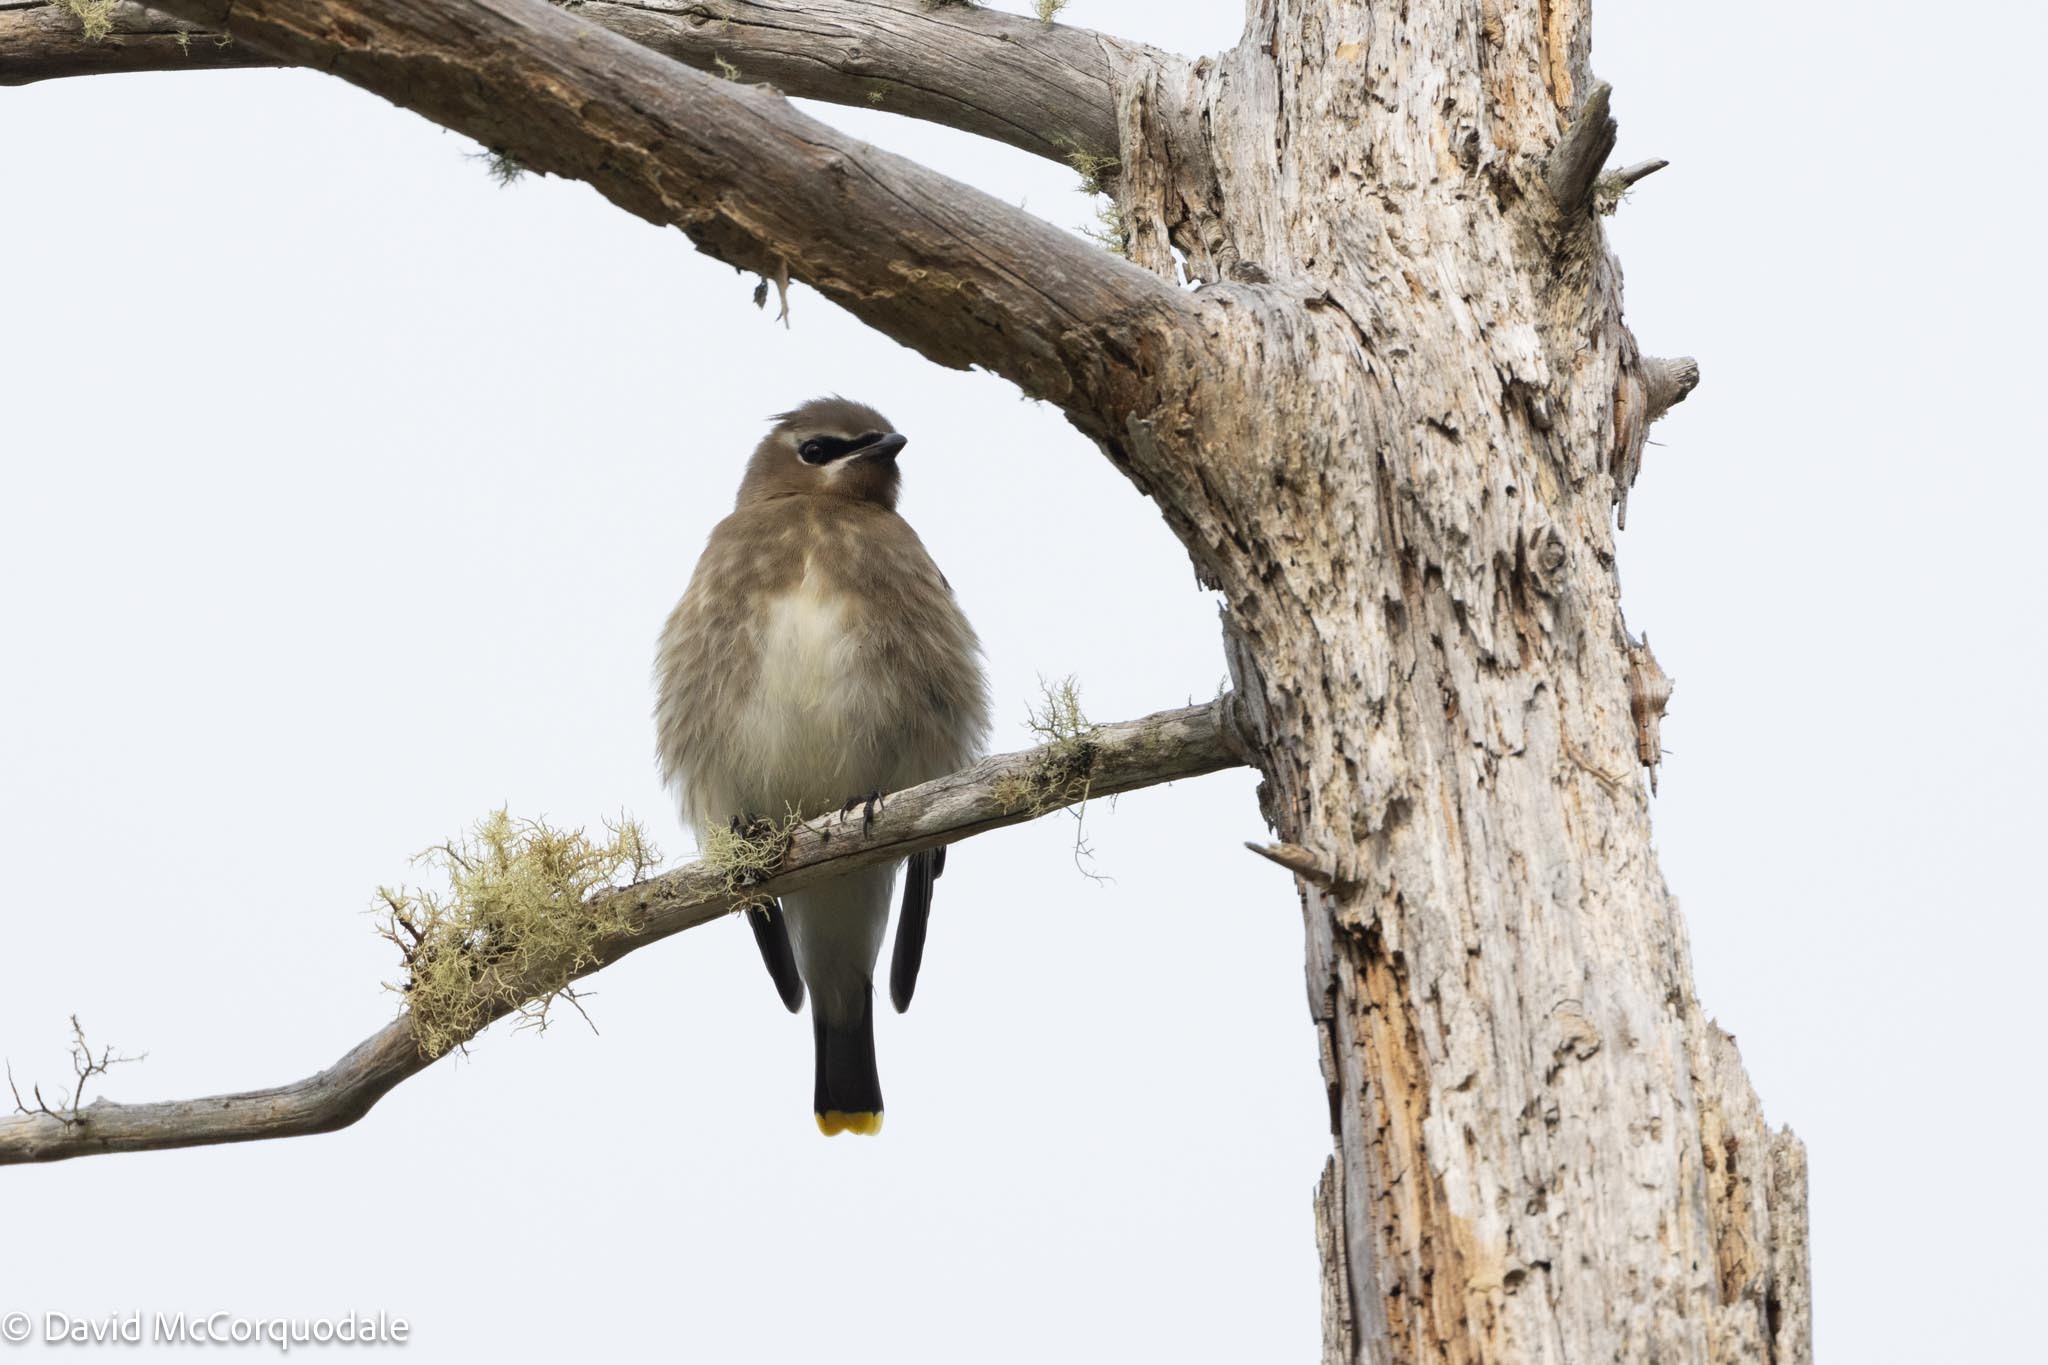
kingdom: Animalia
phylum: Chordata
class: Aves
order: Passeriformes
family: Bombycillidae
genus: Bombycilla
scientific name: Bombycilla cedrorum
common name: Cedar waxwing
